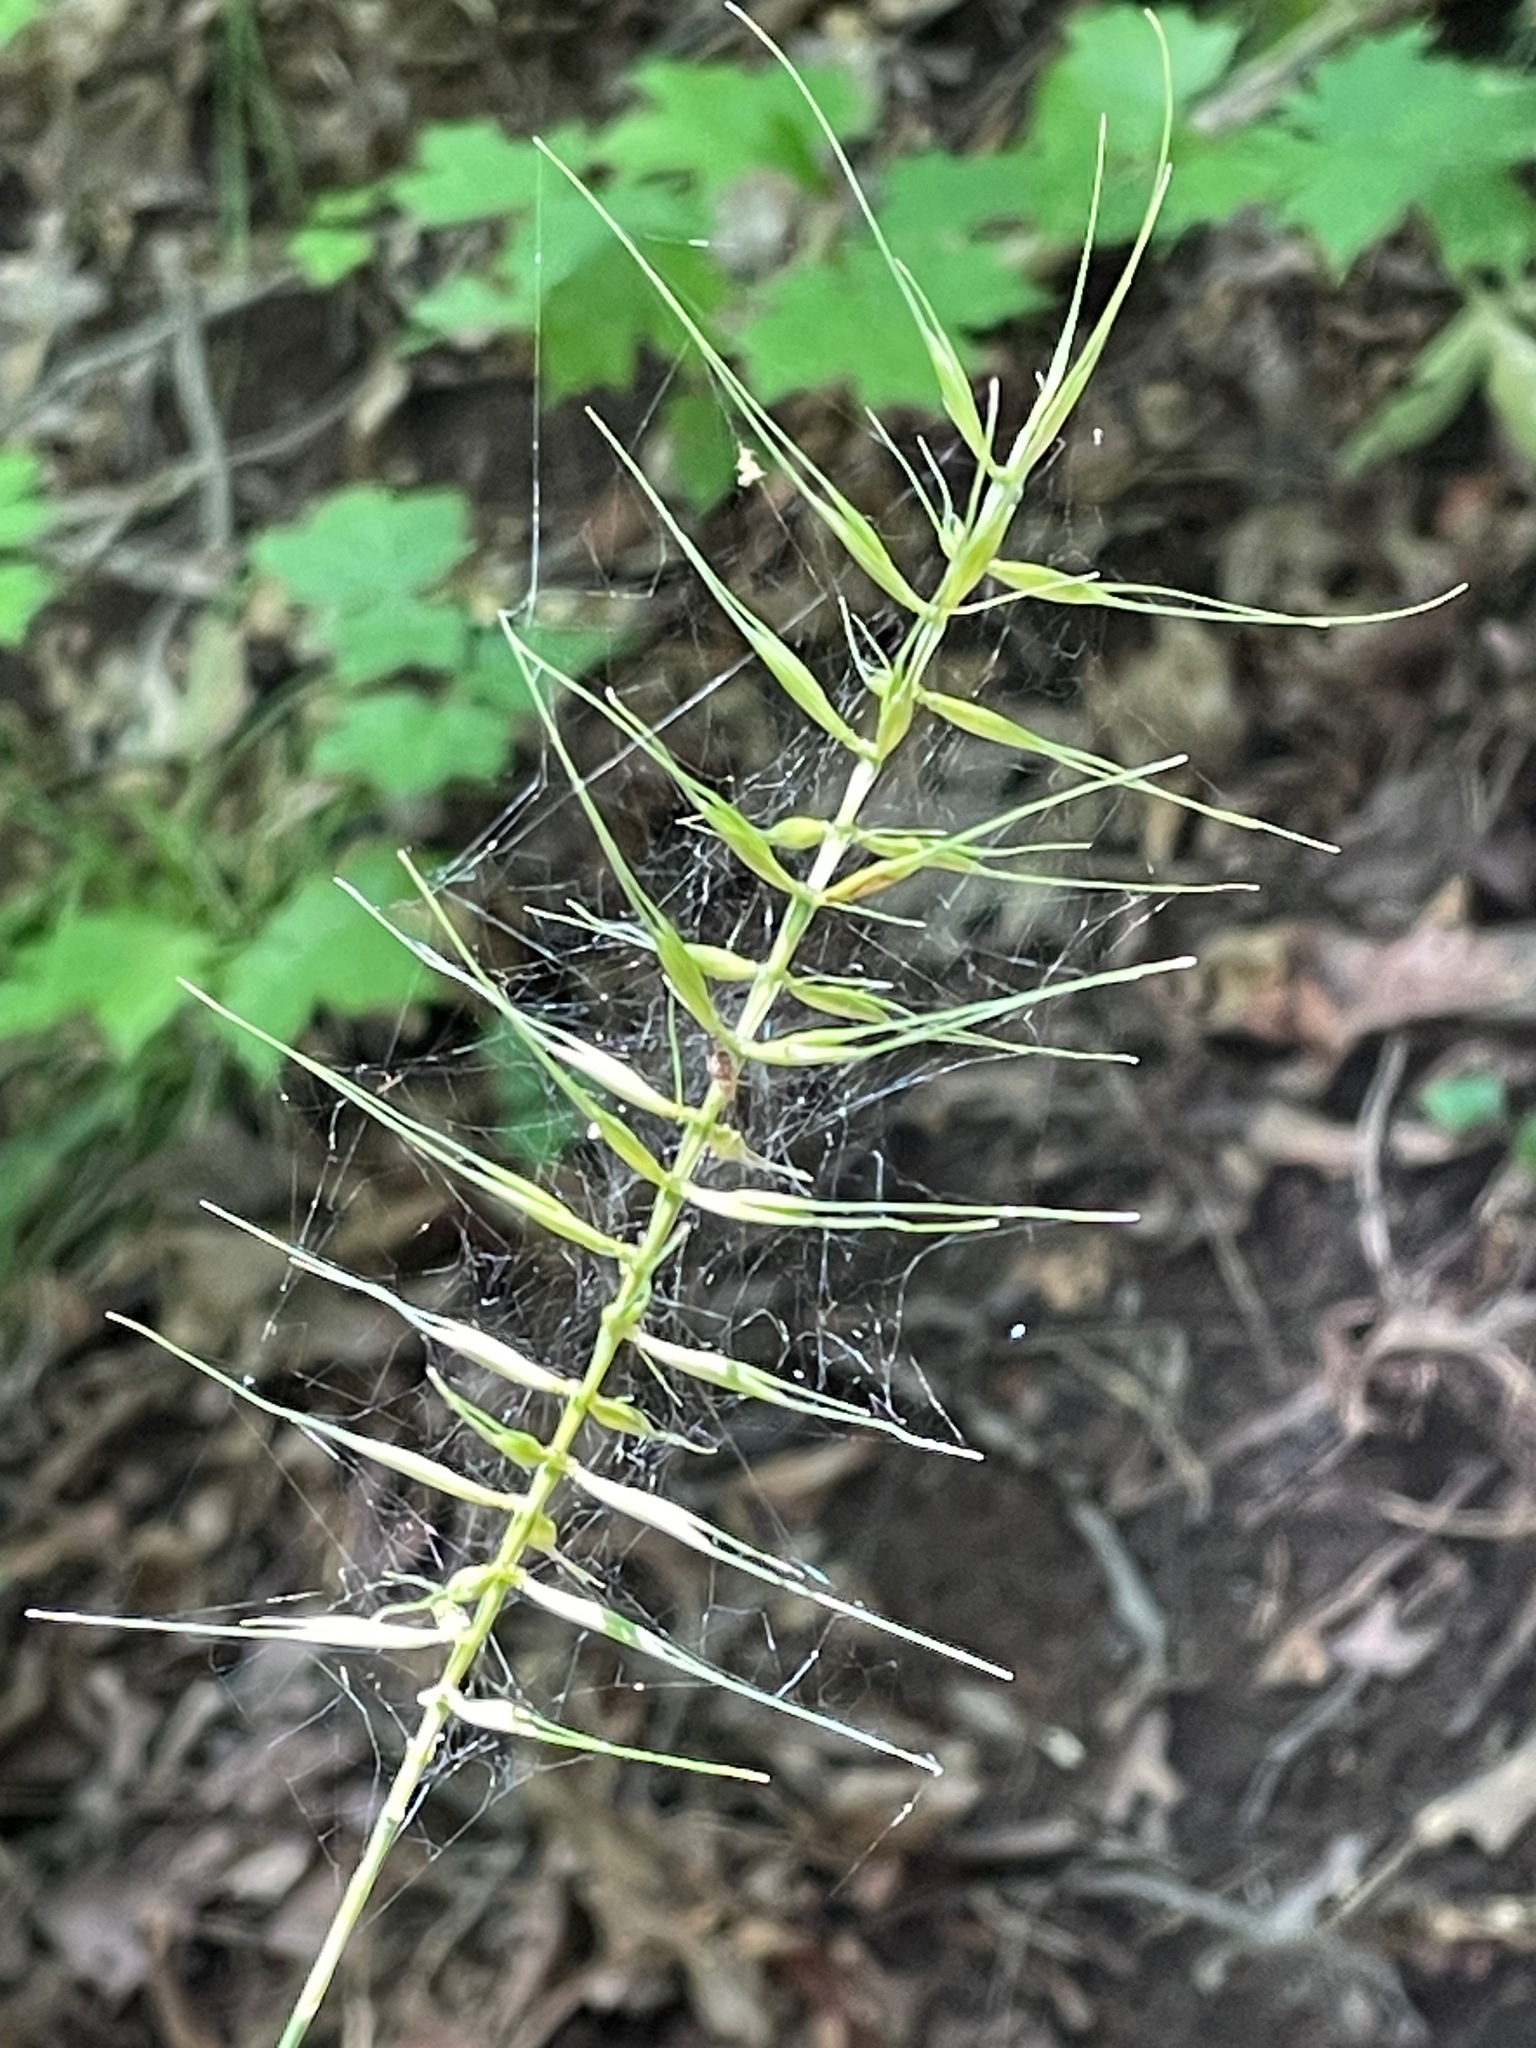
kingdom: Plantae
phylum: Tracheophyta
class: Liliopsida
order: Poales
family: Poaceae
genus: Elymus
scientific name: Elymus hystrix
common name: Bottlebrush grass
